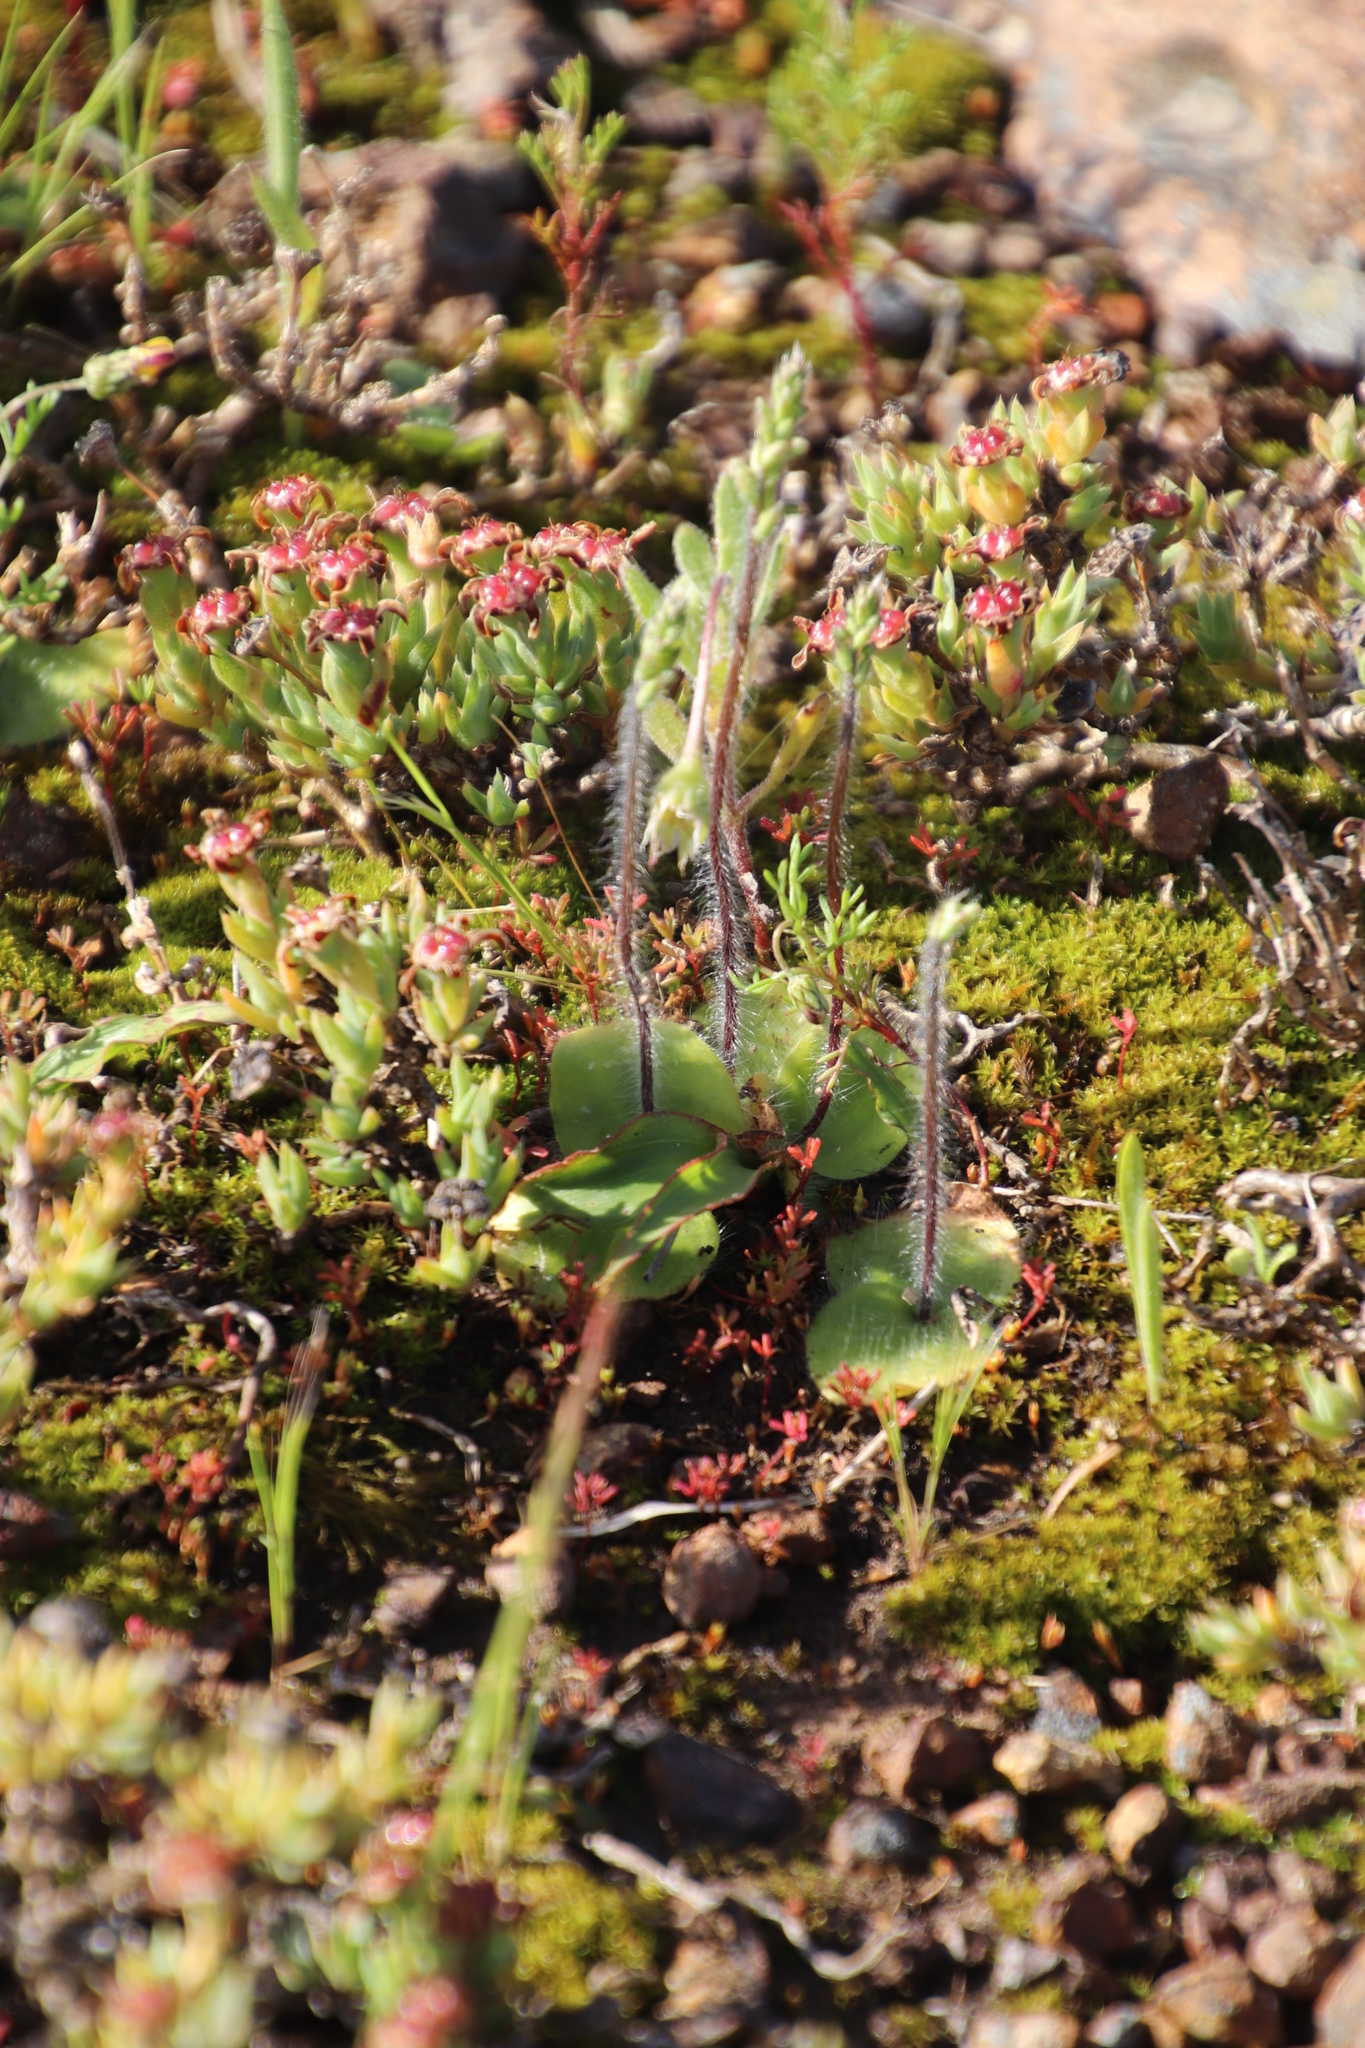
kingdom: Plantae
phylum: Tracheophyta
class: Liliopsida
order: Asparagales
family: Orchidaceae
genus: Holothrix
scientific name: Holothrix villosa
